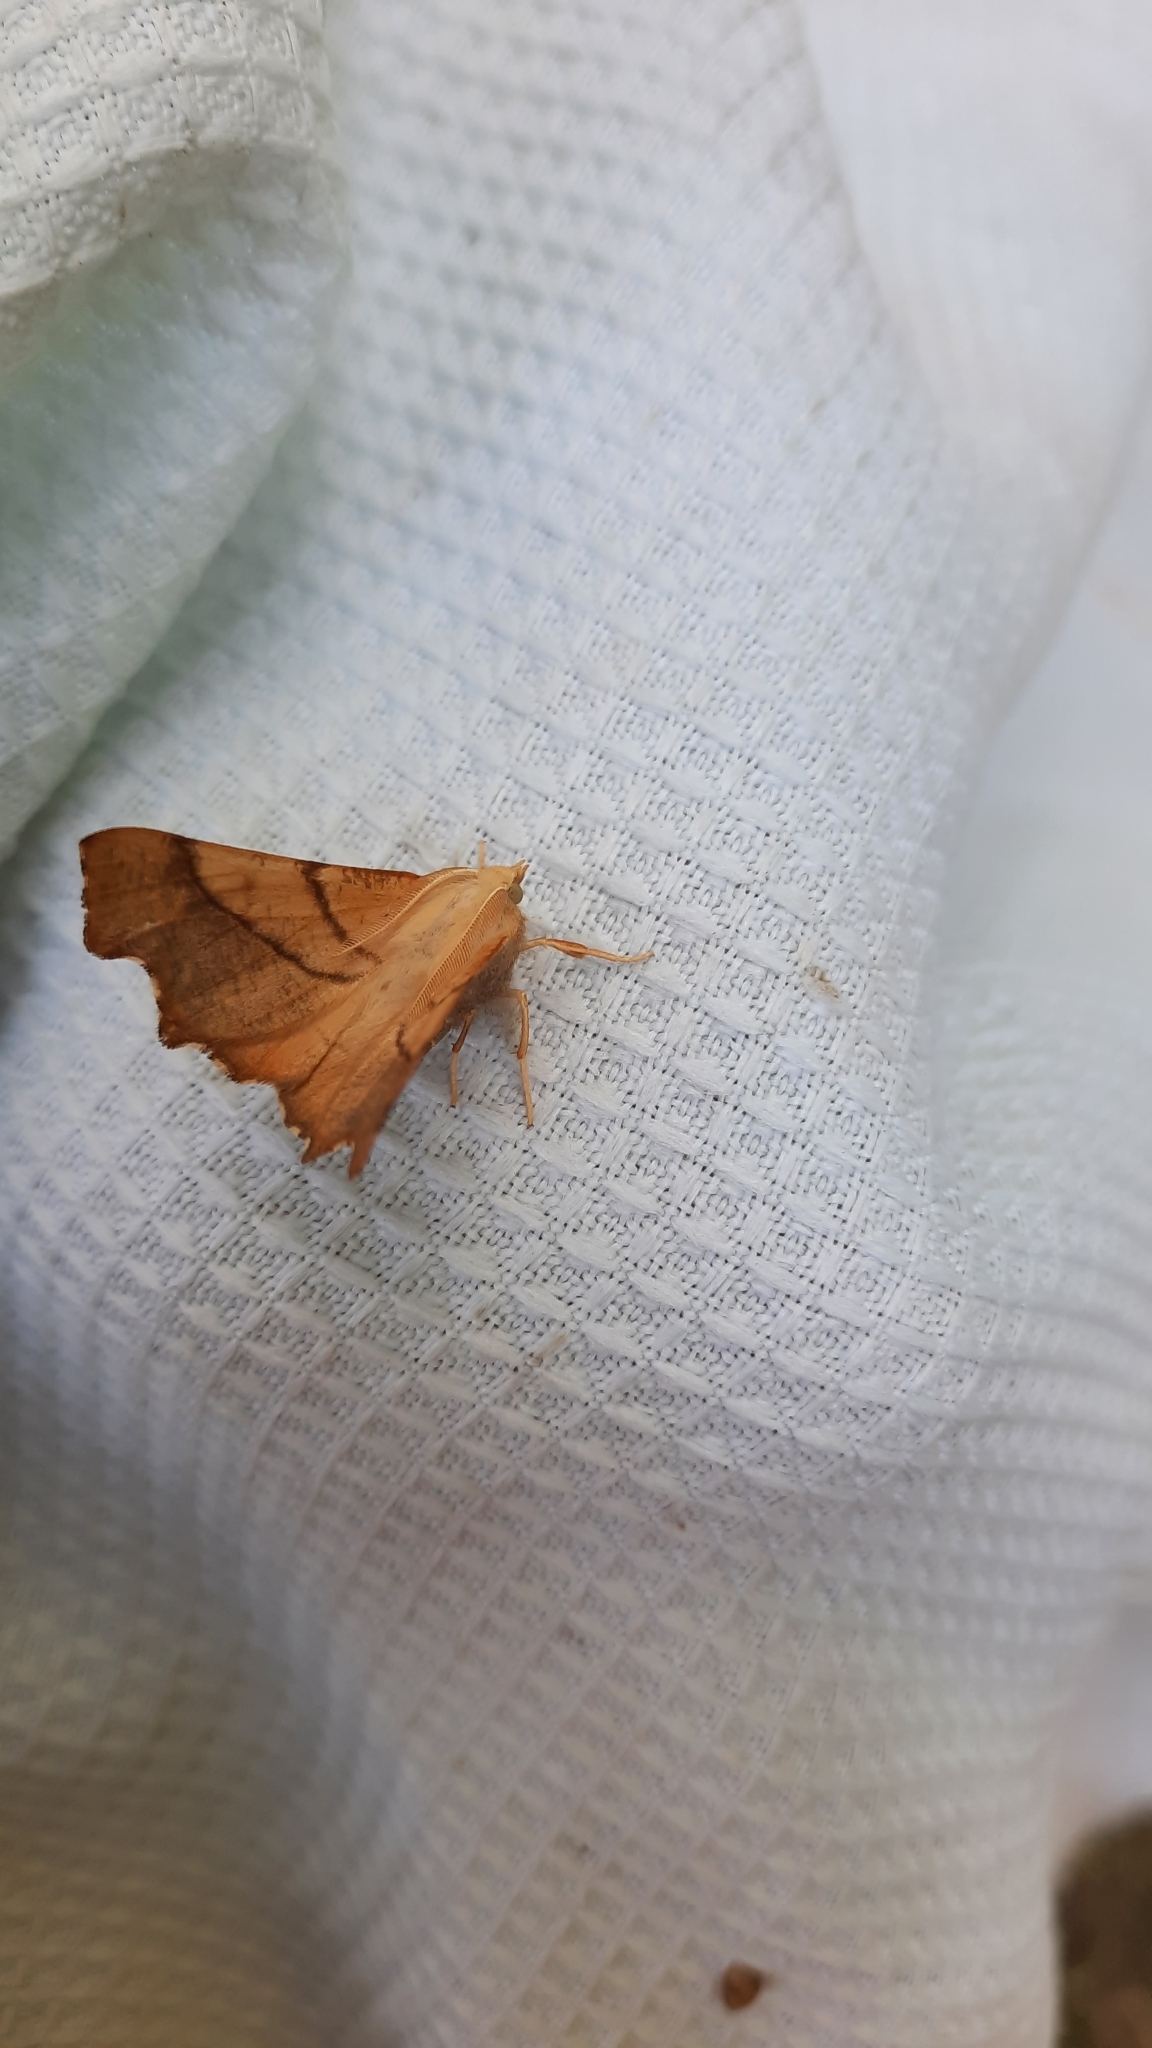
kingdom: Animalia
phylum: Arthropoda
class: Insecta
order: Lepidoptera
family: Geometridae
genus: Ennomos
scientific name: Ennomos fuscantaria
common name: Dusky thorn
